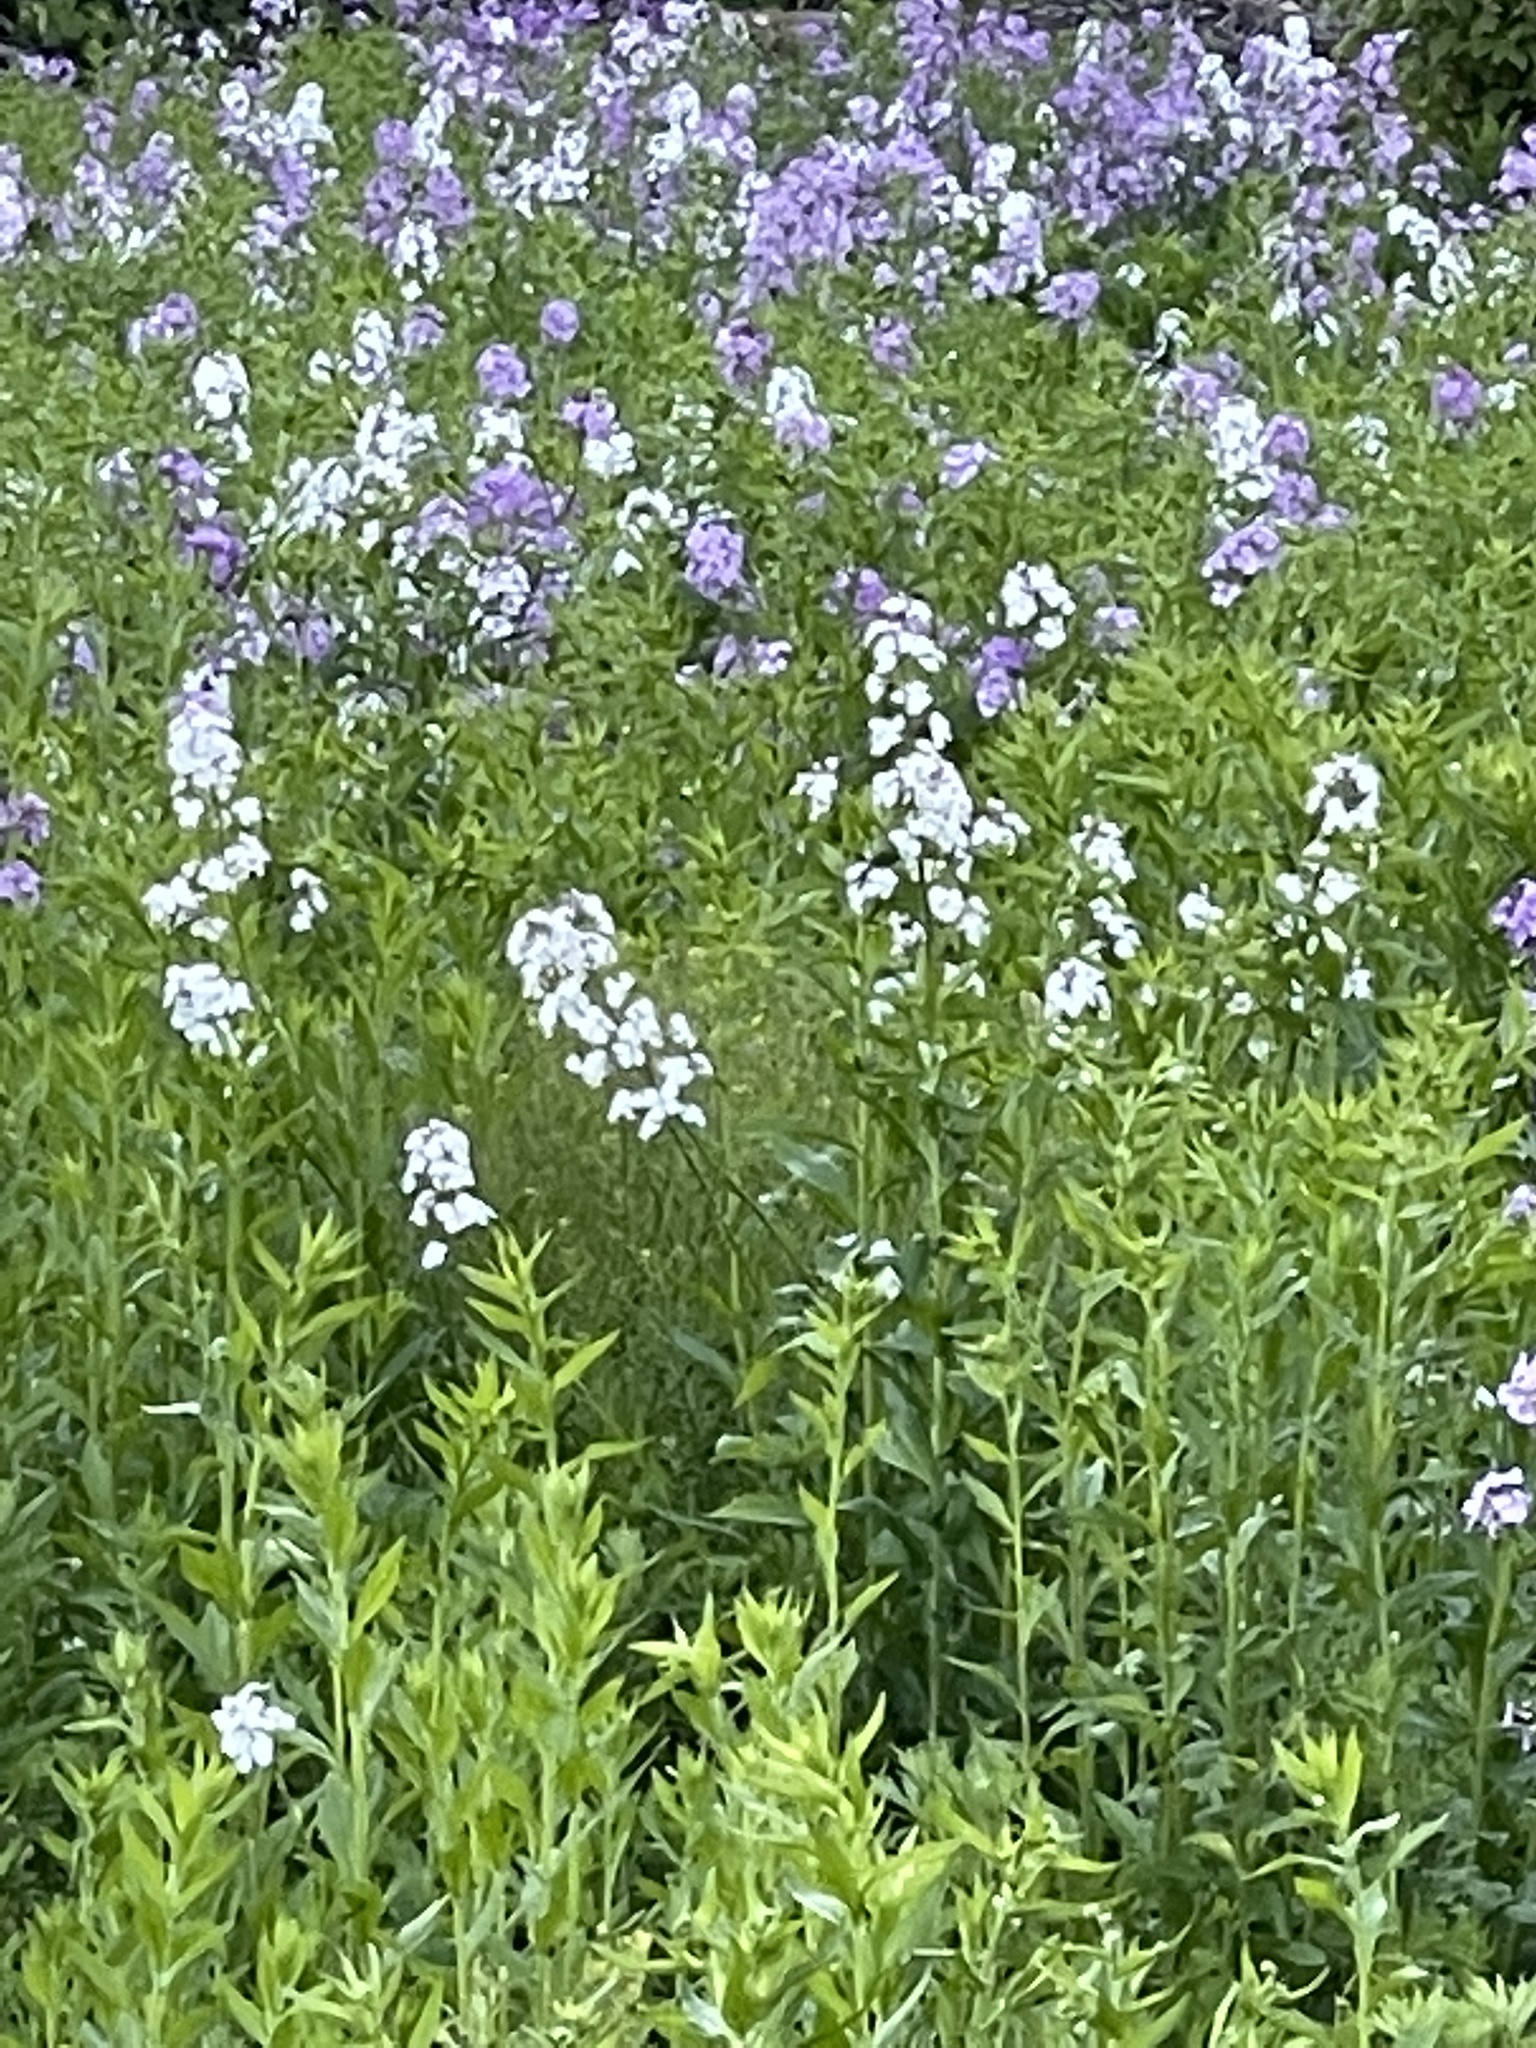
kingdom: Plantae
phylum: Tracheophyta
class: Magnoliopsida
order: Brassicales
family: Brassicaceae
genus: Hesperis
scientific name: Hesperis matronalis
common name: Dame's-violet
